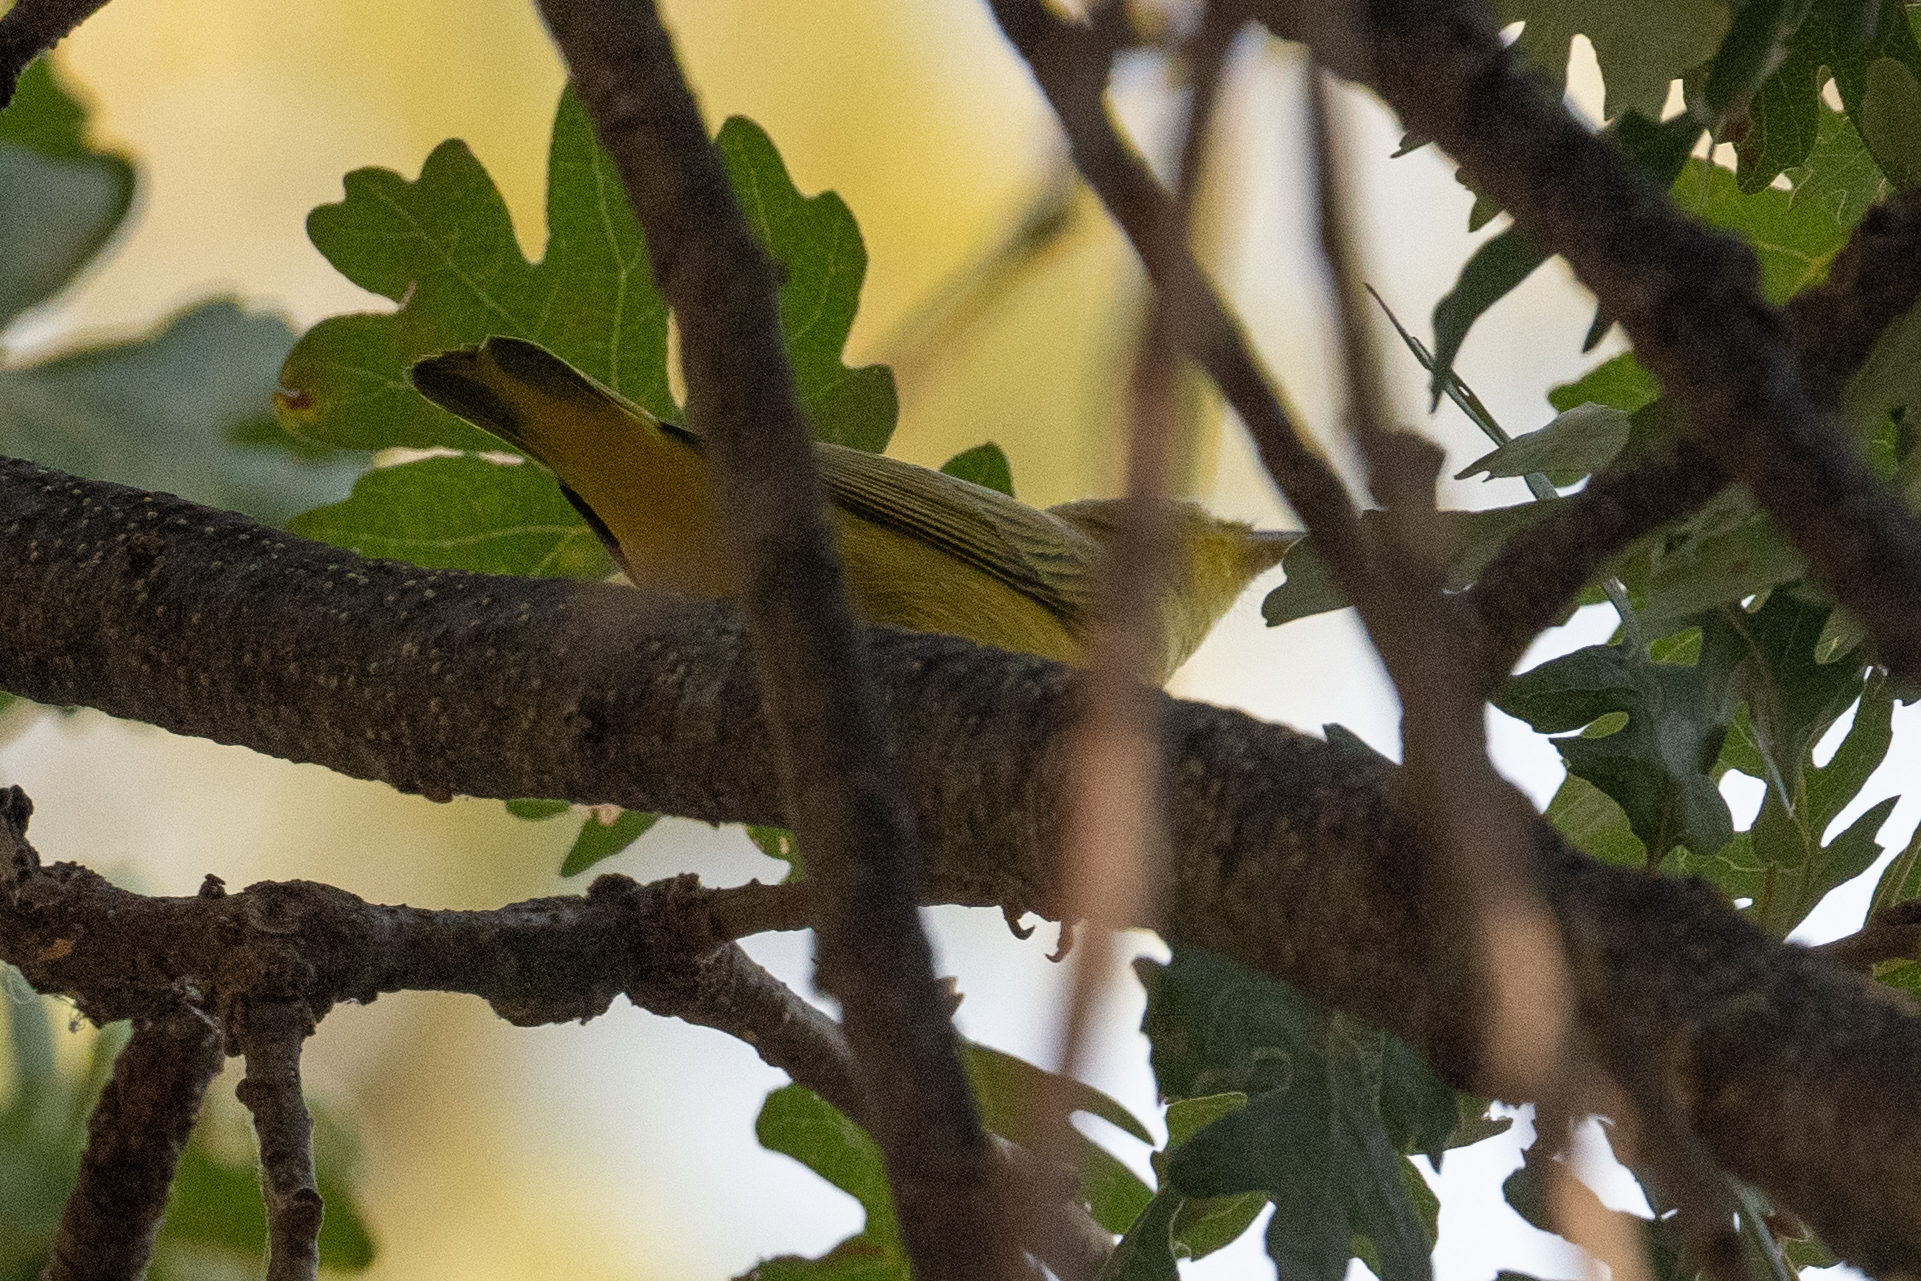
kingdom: Animalia
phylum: Chordata
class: Aves
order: Passeriformes
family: Parulidae
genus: Setophaga
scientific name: Setophaga petechia
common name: Yellow warbler
